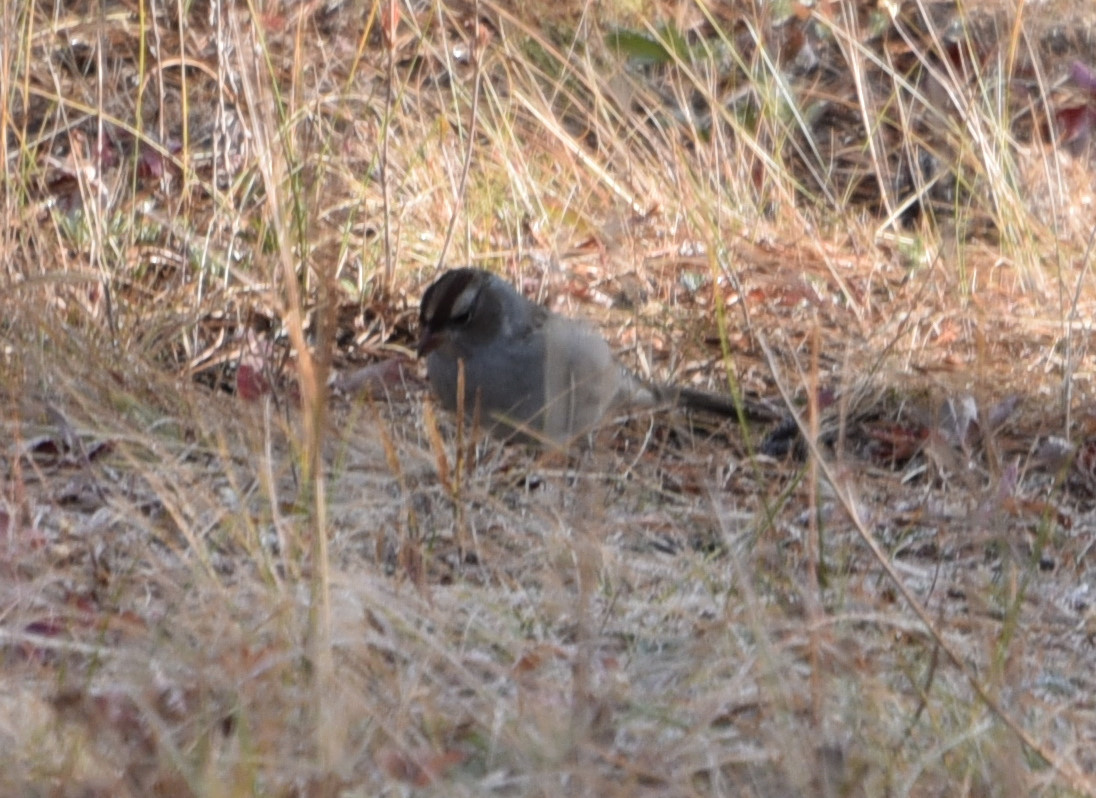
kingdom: Animalia
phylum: Chordata
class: Aves
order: Passeriformes
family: Passerellidae
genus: Zonotrichia
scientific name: Zonotrichia leucophrys
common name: White-crowned sparrow
